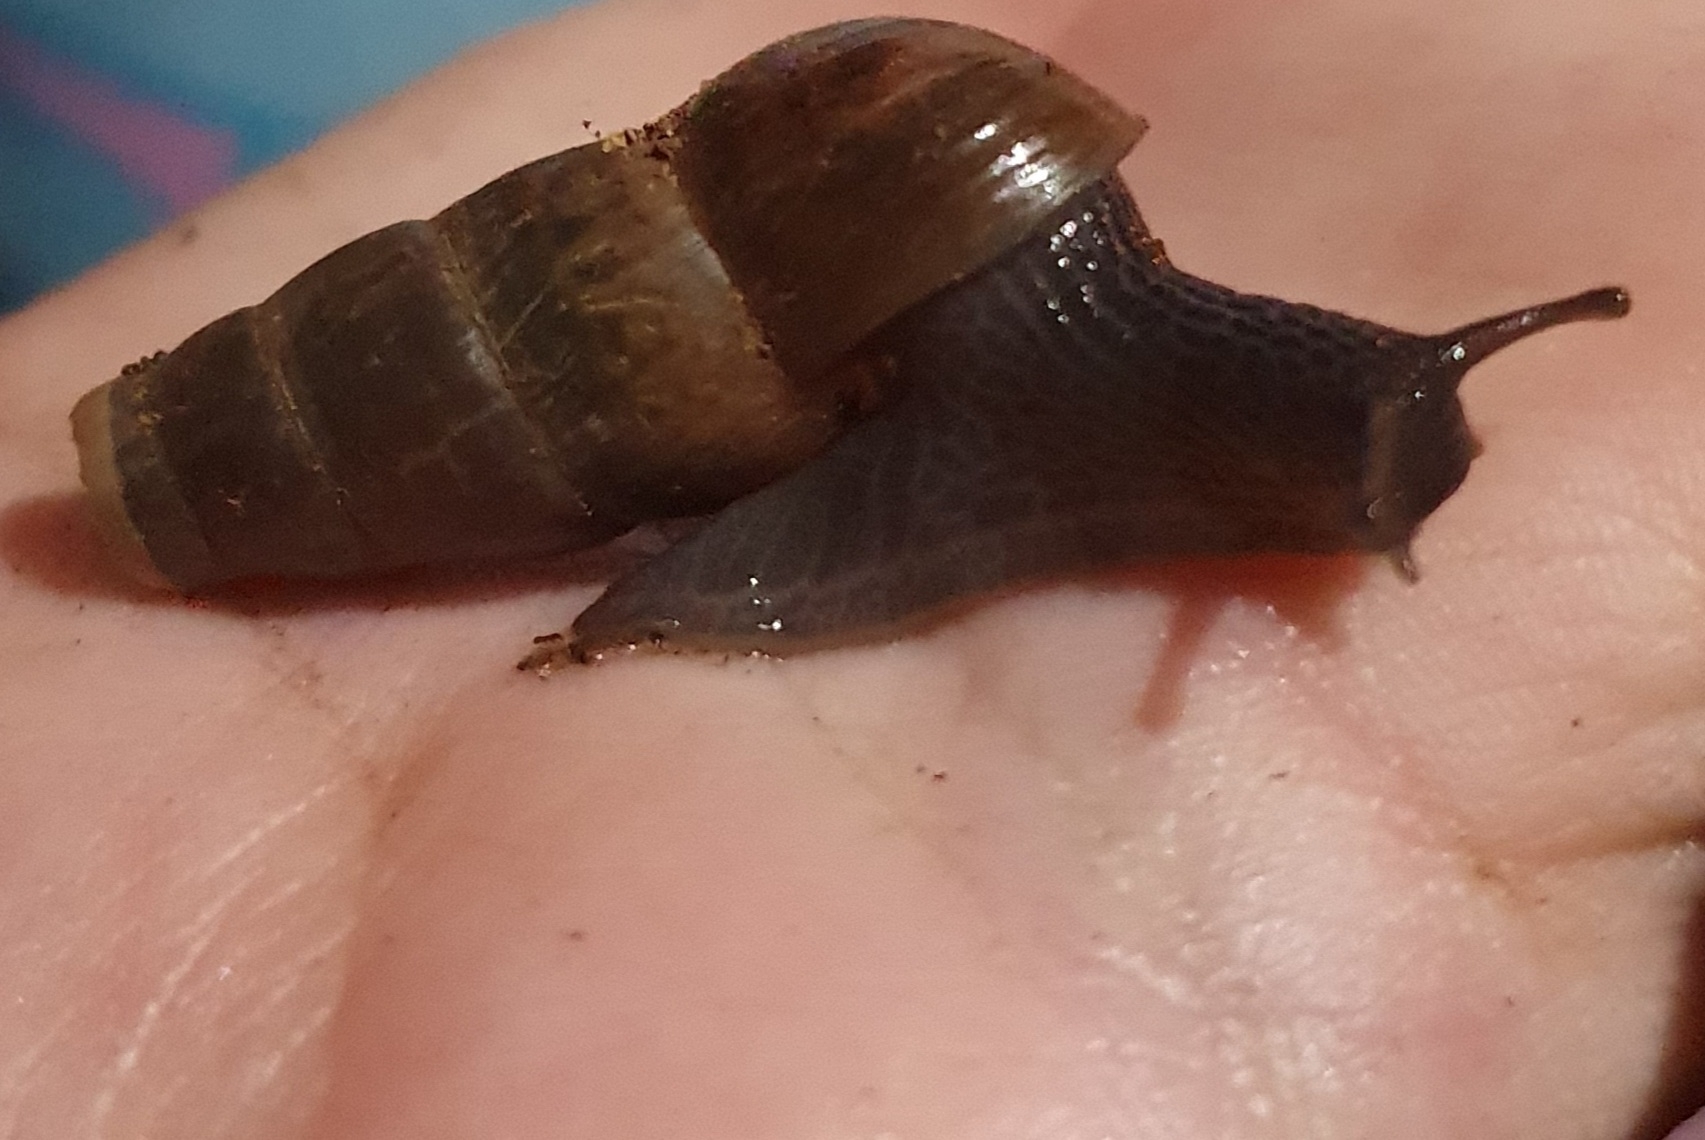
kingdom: Animalia
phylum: Mollusca
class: Gastropoda
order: Stylommatophora
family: Achatinidae
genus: Rumina
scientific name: Rumina decollata
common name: Decollate snail
